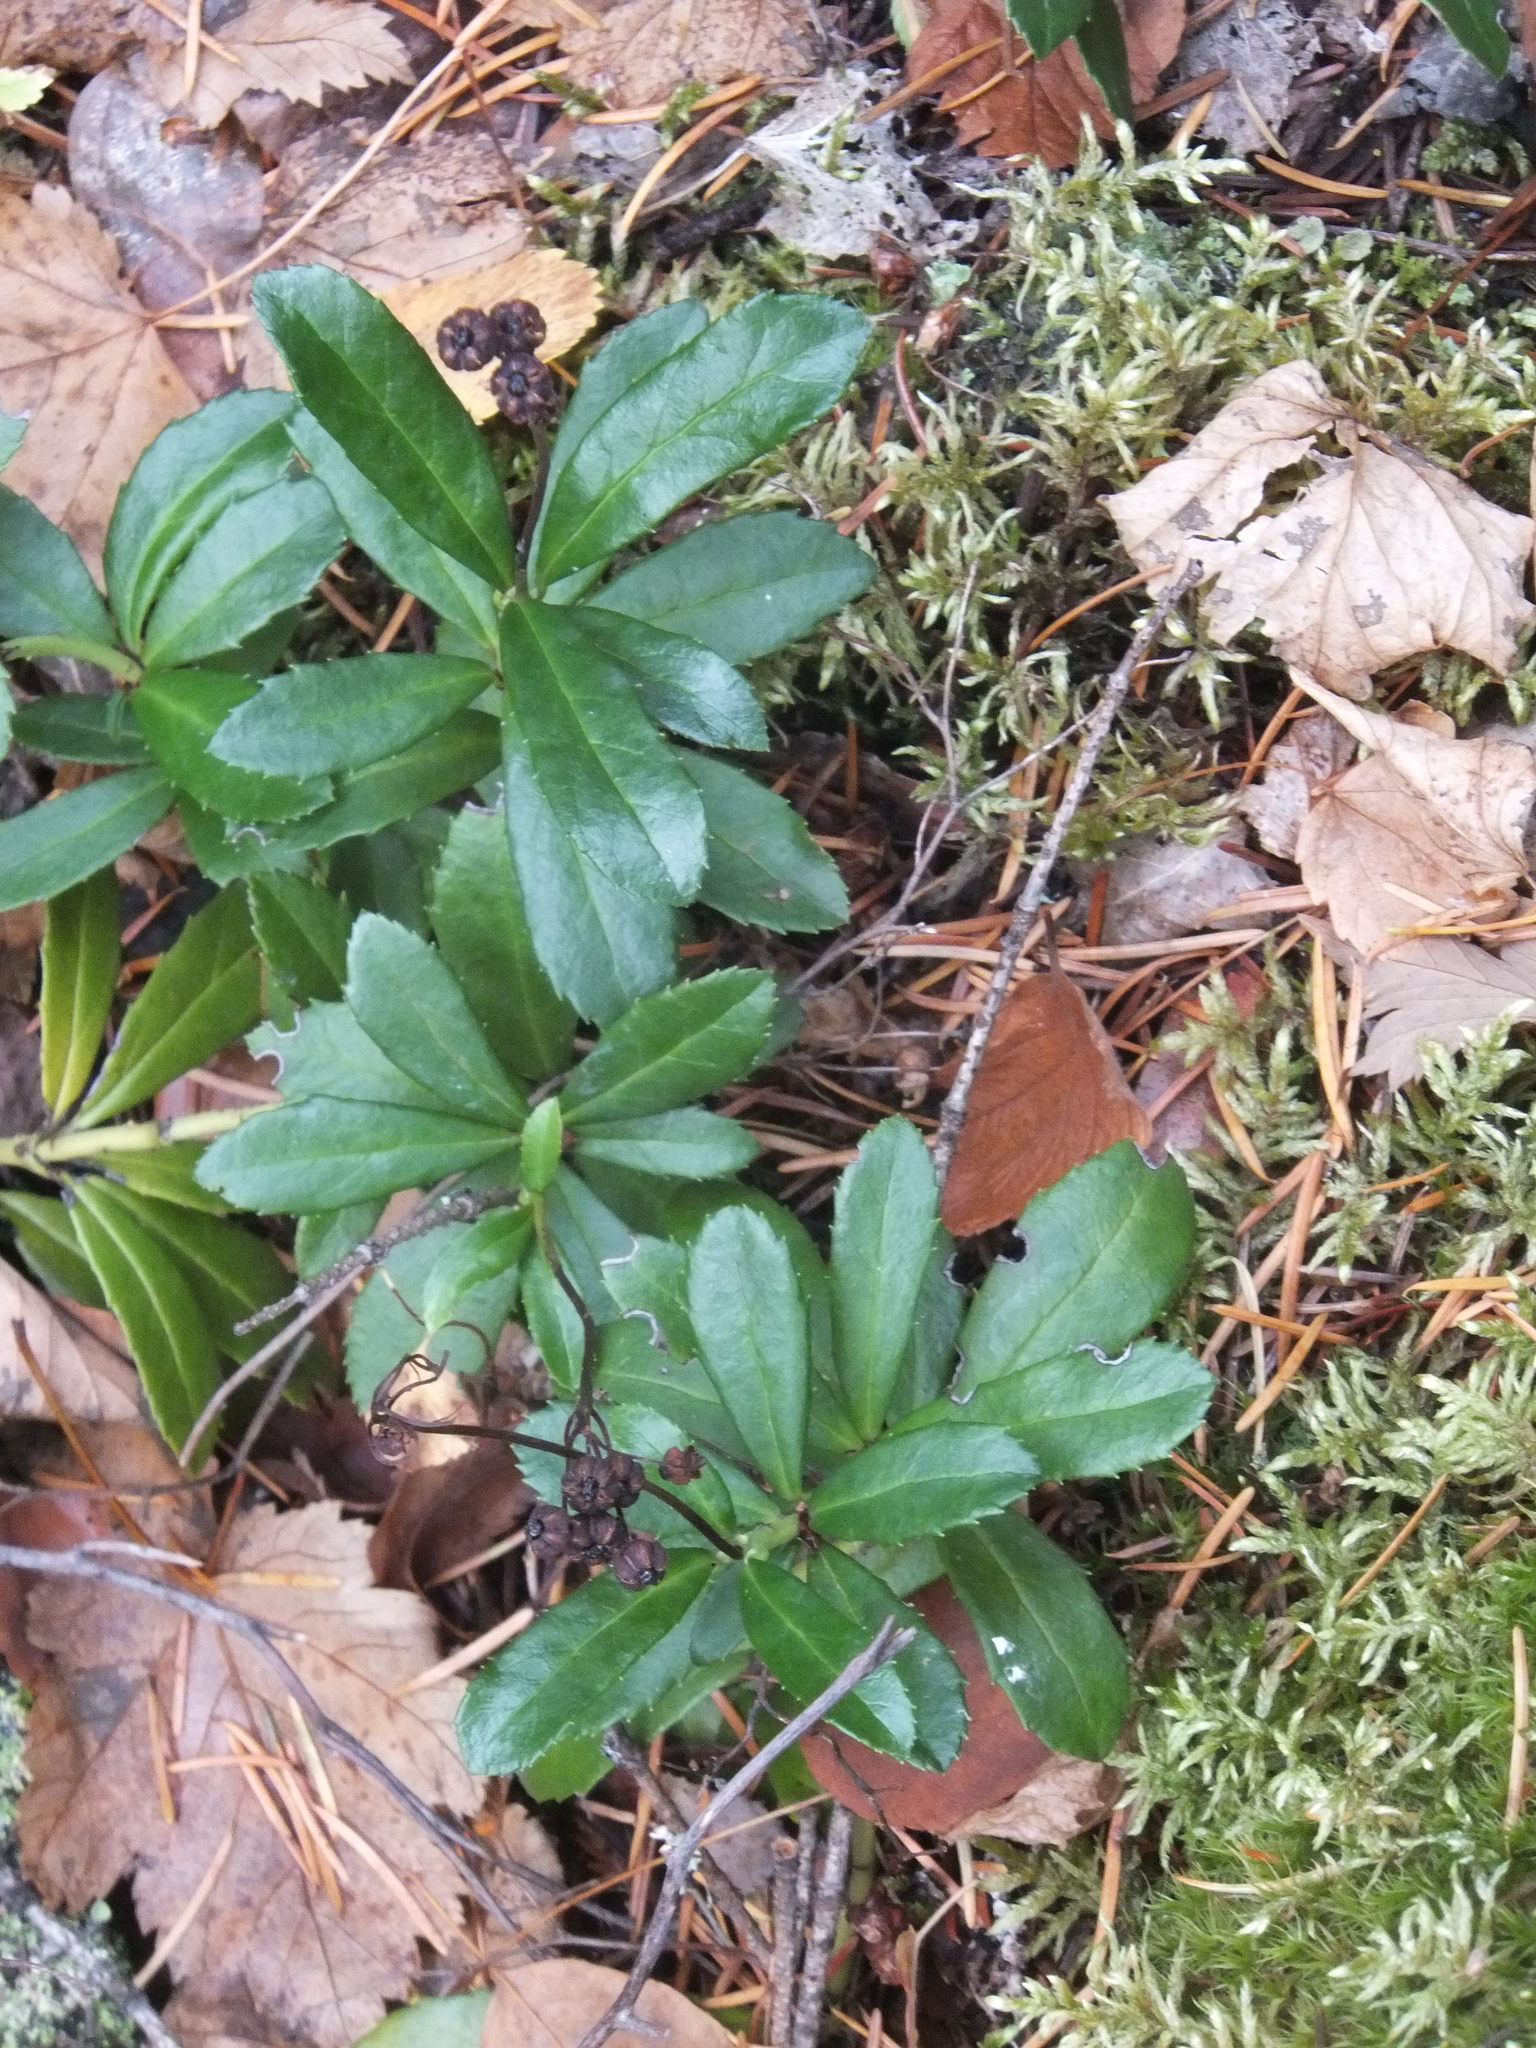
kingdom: Plantae
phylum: Tracheophyta
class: Magnoliopsida
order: Ericales
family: Ericaceae
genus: Chimaphila
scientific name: Chimaphila umbellata
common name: Pipsissewa
